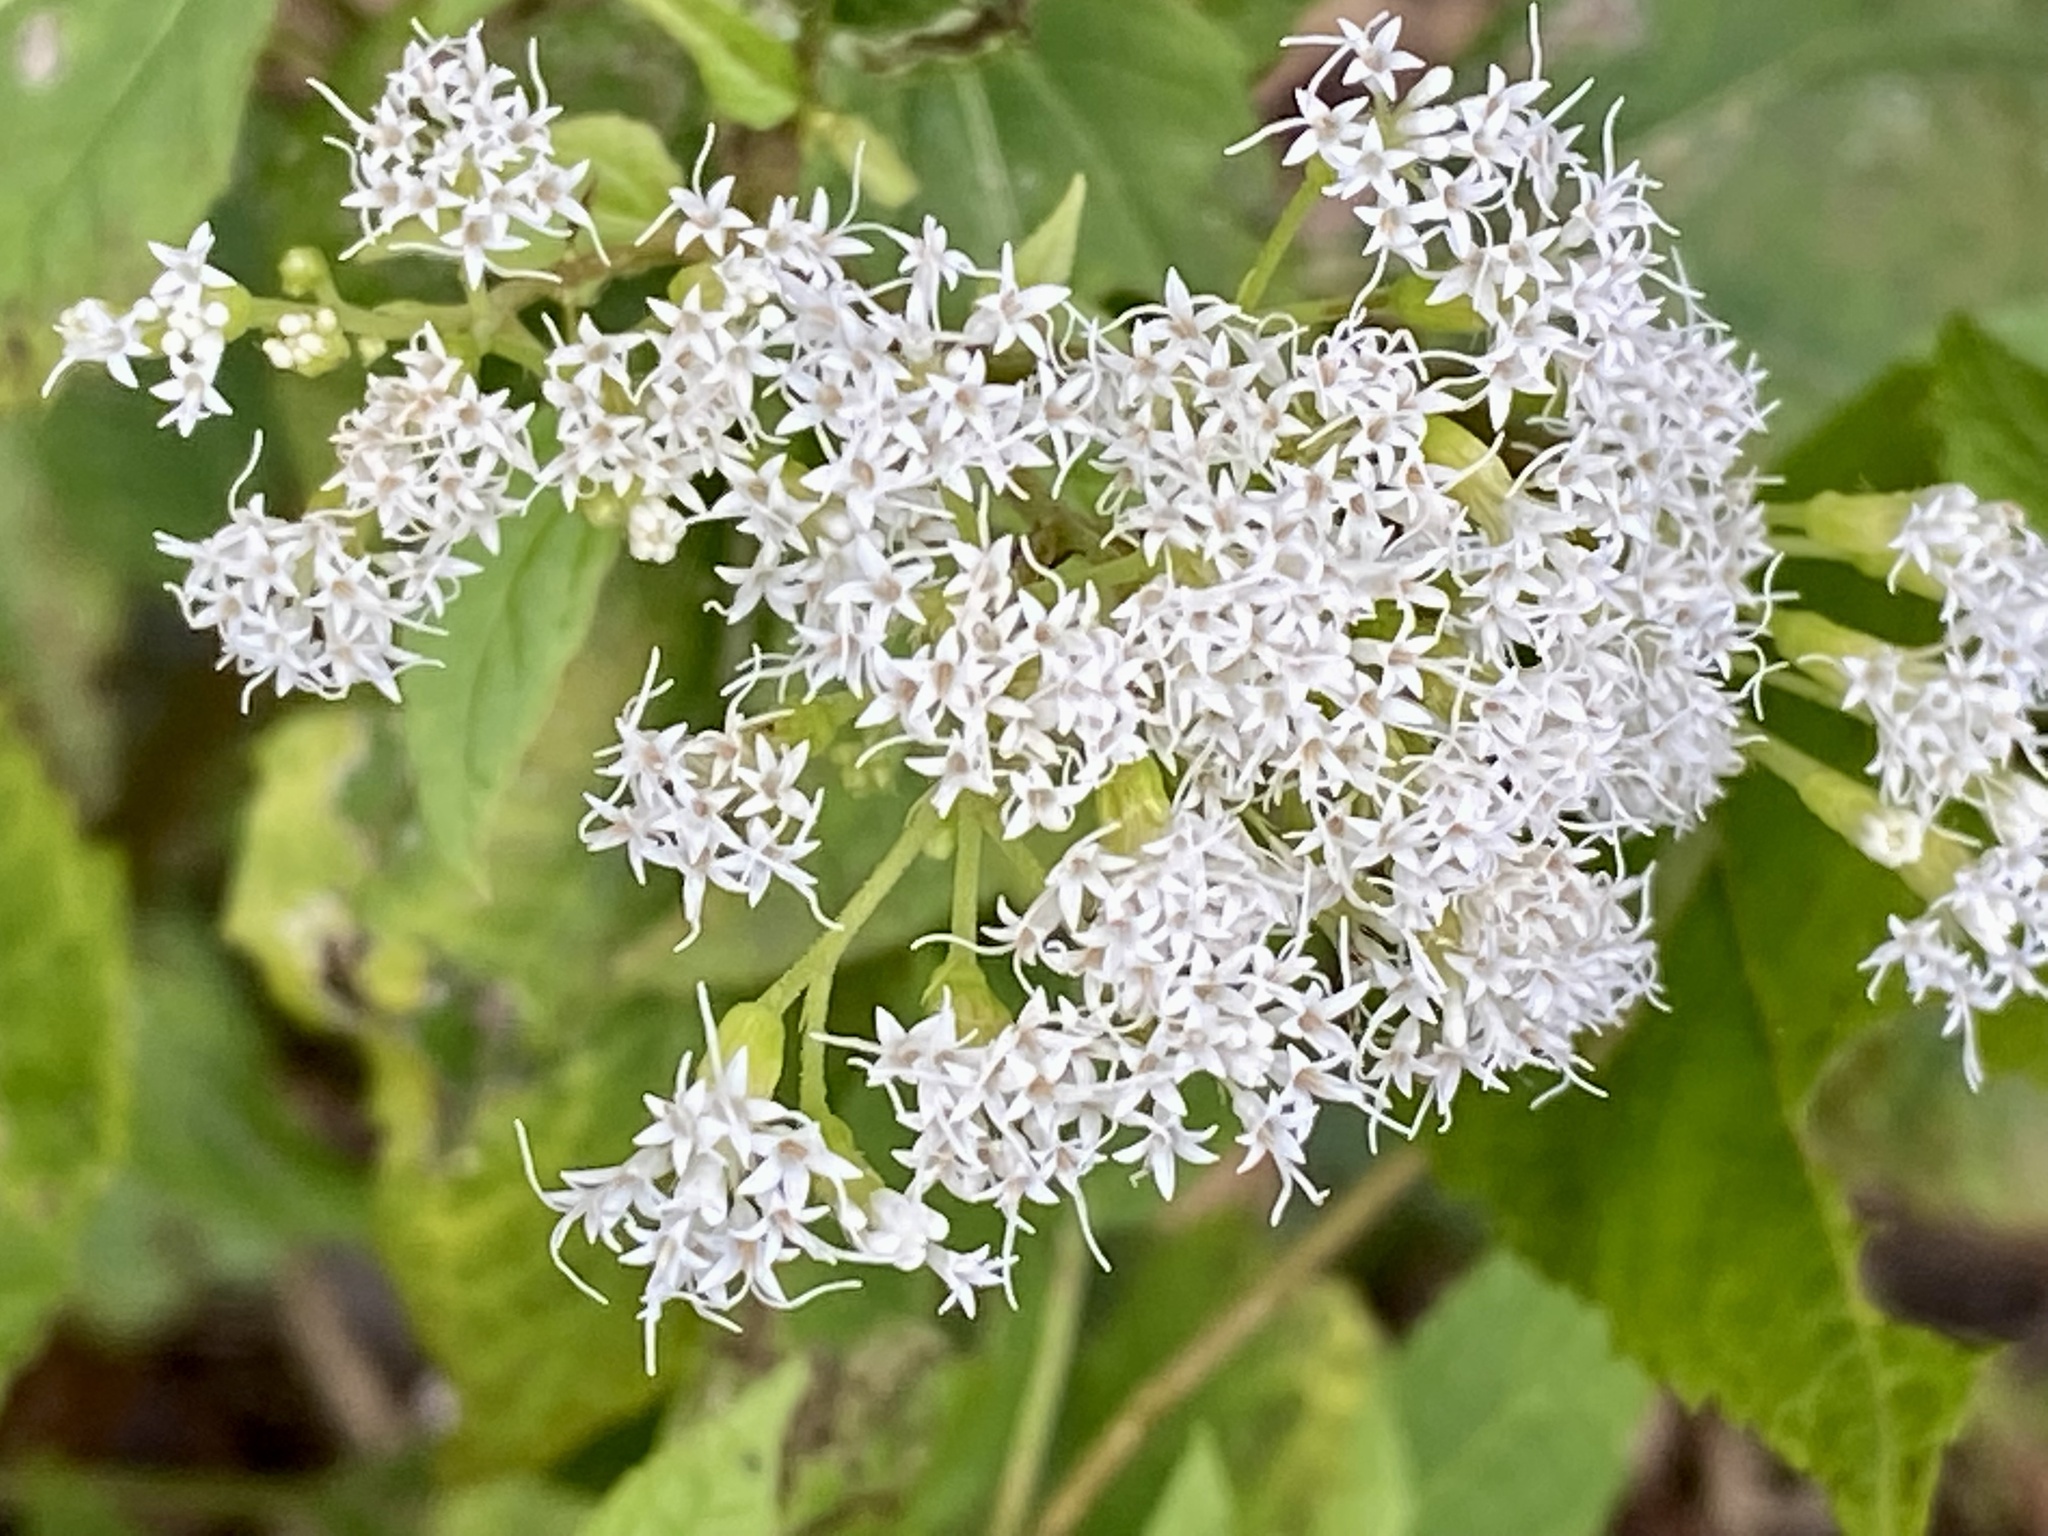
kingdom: Plantae
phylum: Tracheophyta
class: Magnoliopsida
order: Asterales
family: Asteraceae
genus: Ageratina
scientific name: Ageratina altissima
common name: White snakeroot
